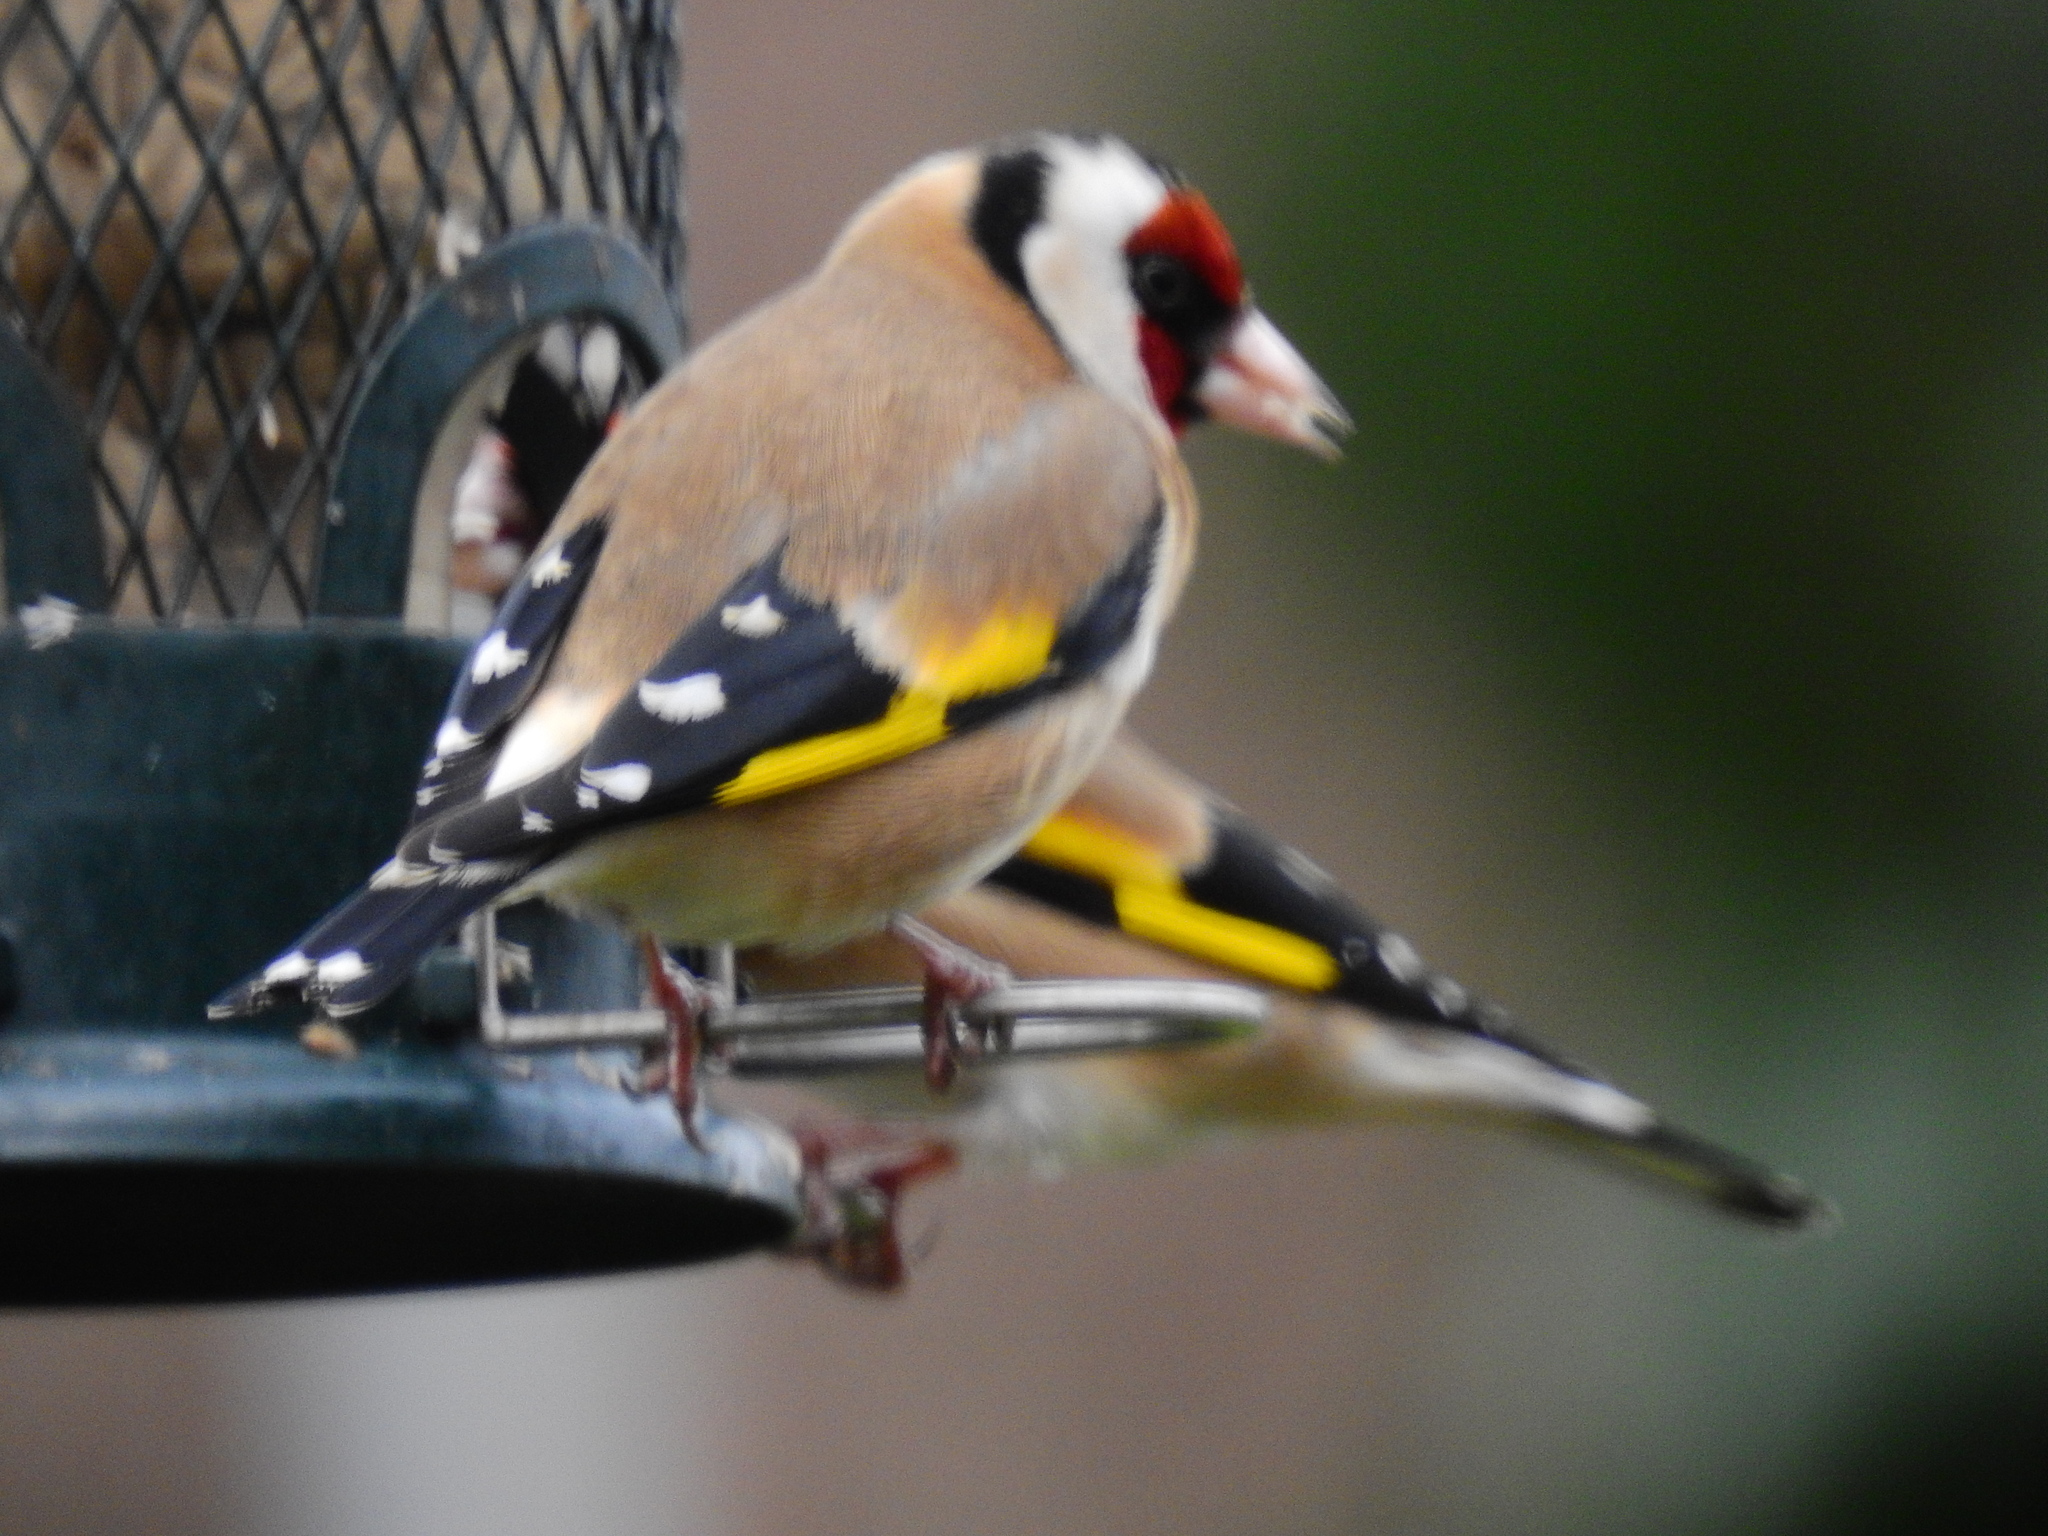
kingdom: Animalia
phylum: Chordata
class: Aves
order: Passeriformes
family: Fringillidae
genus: Carduelis
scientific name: Carduelis carduelis
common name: European goldfinch
